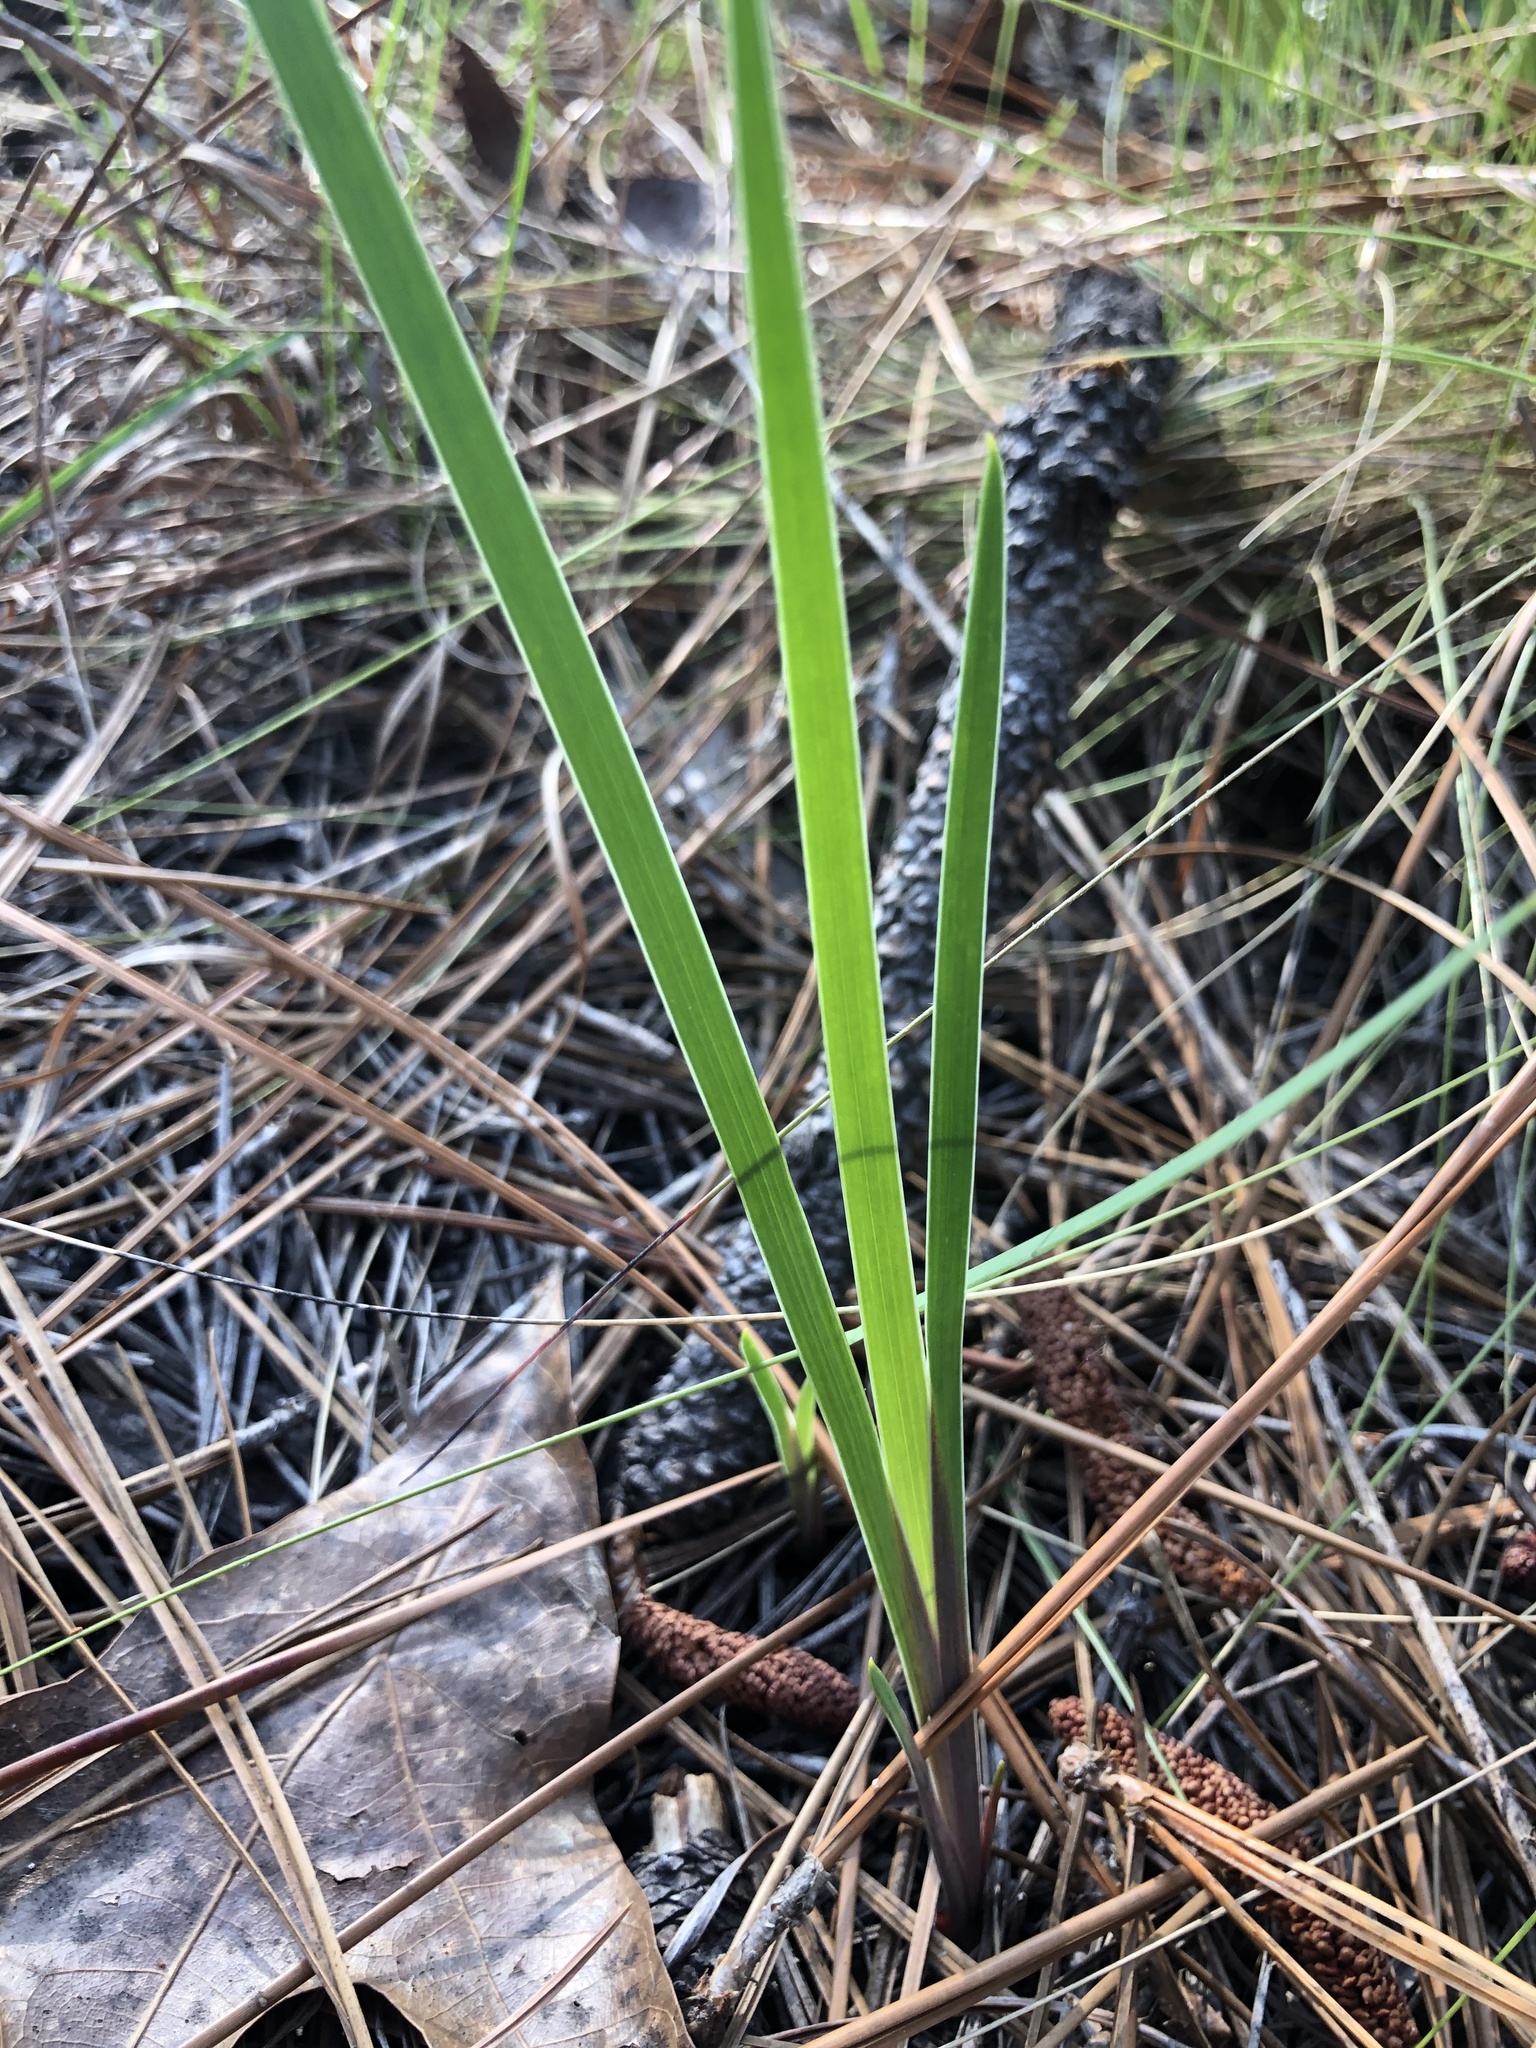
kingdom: Plantae
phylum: Tracheophyta
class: Liliopsida
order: Asparagales
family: Iridaceae
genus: Iris
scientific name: Iris verna
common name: Dwarf iris
